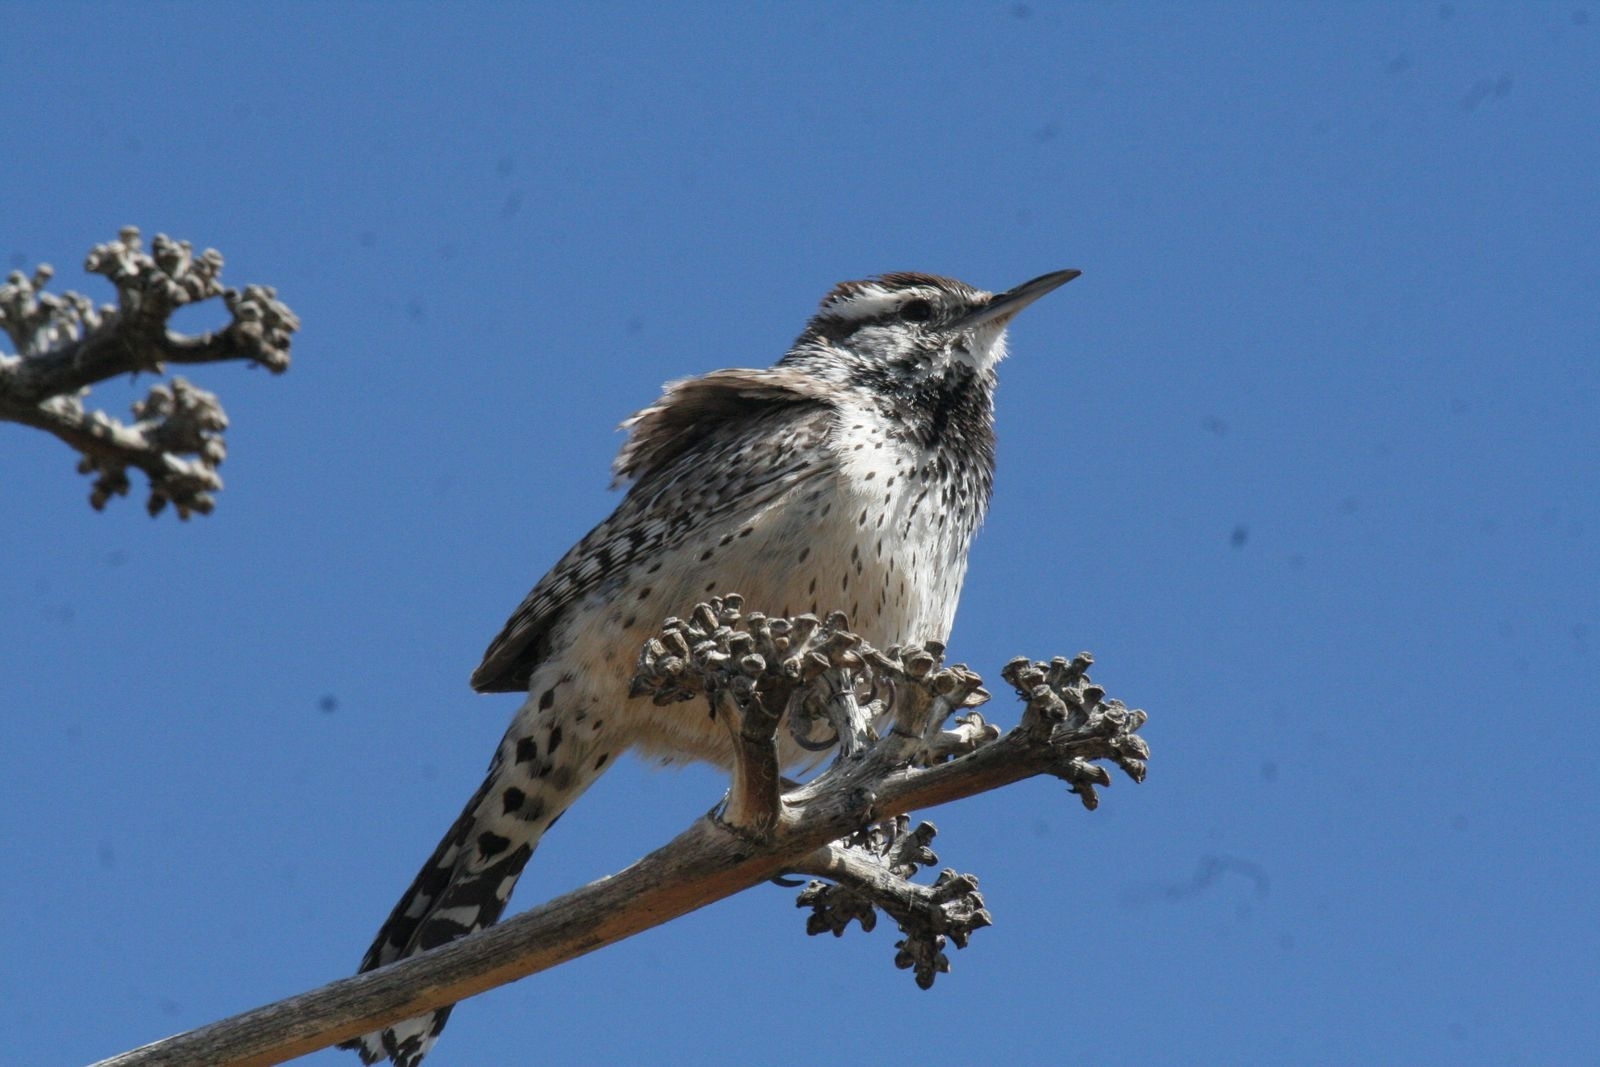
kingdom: Animalia
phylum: Chordata
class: Aves
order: Passeriformes
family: Troglodytidae
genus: Campylorhynchus
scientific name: Campylorhynchus brunneicapillus
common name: Cactus wren
